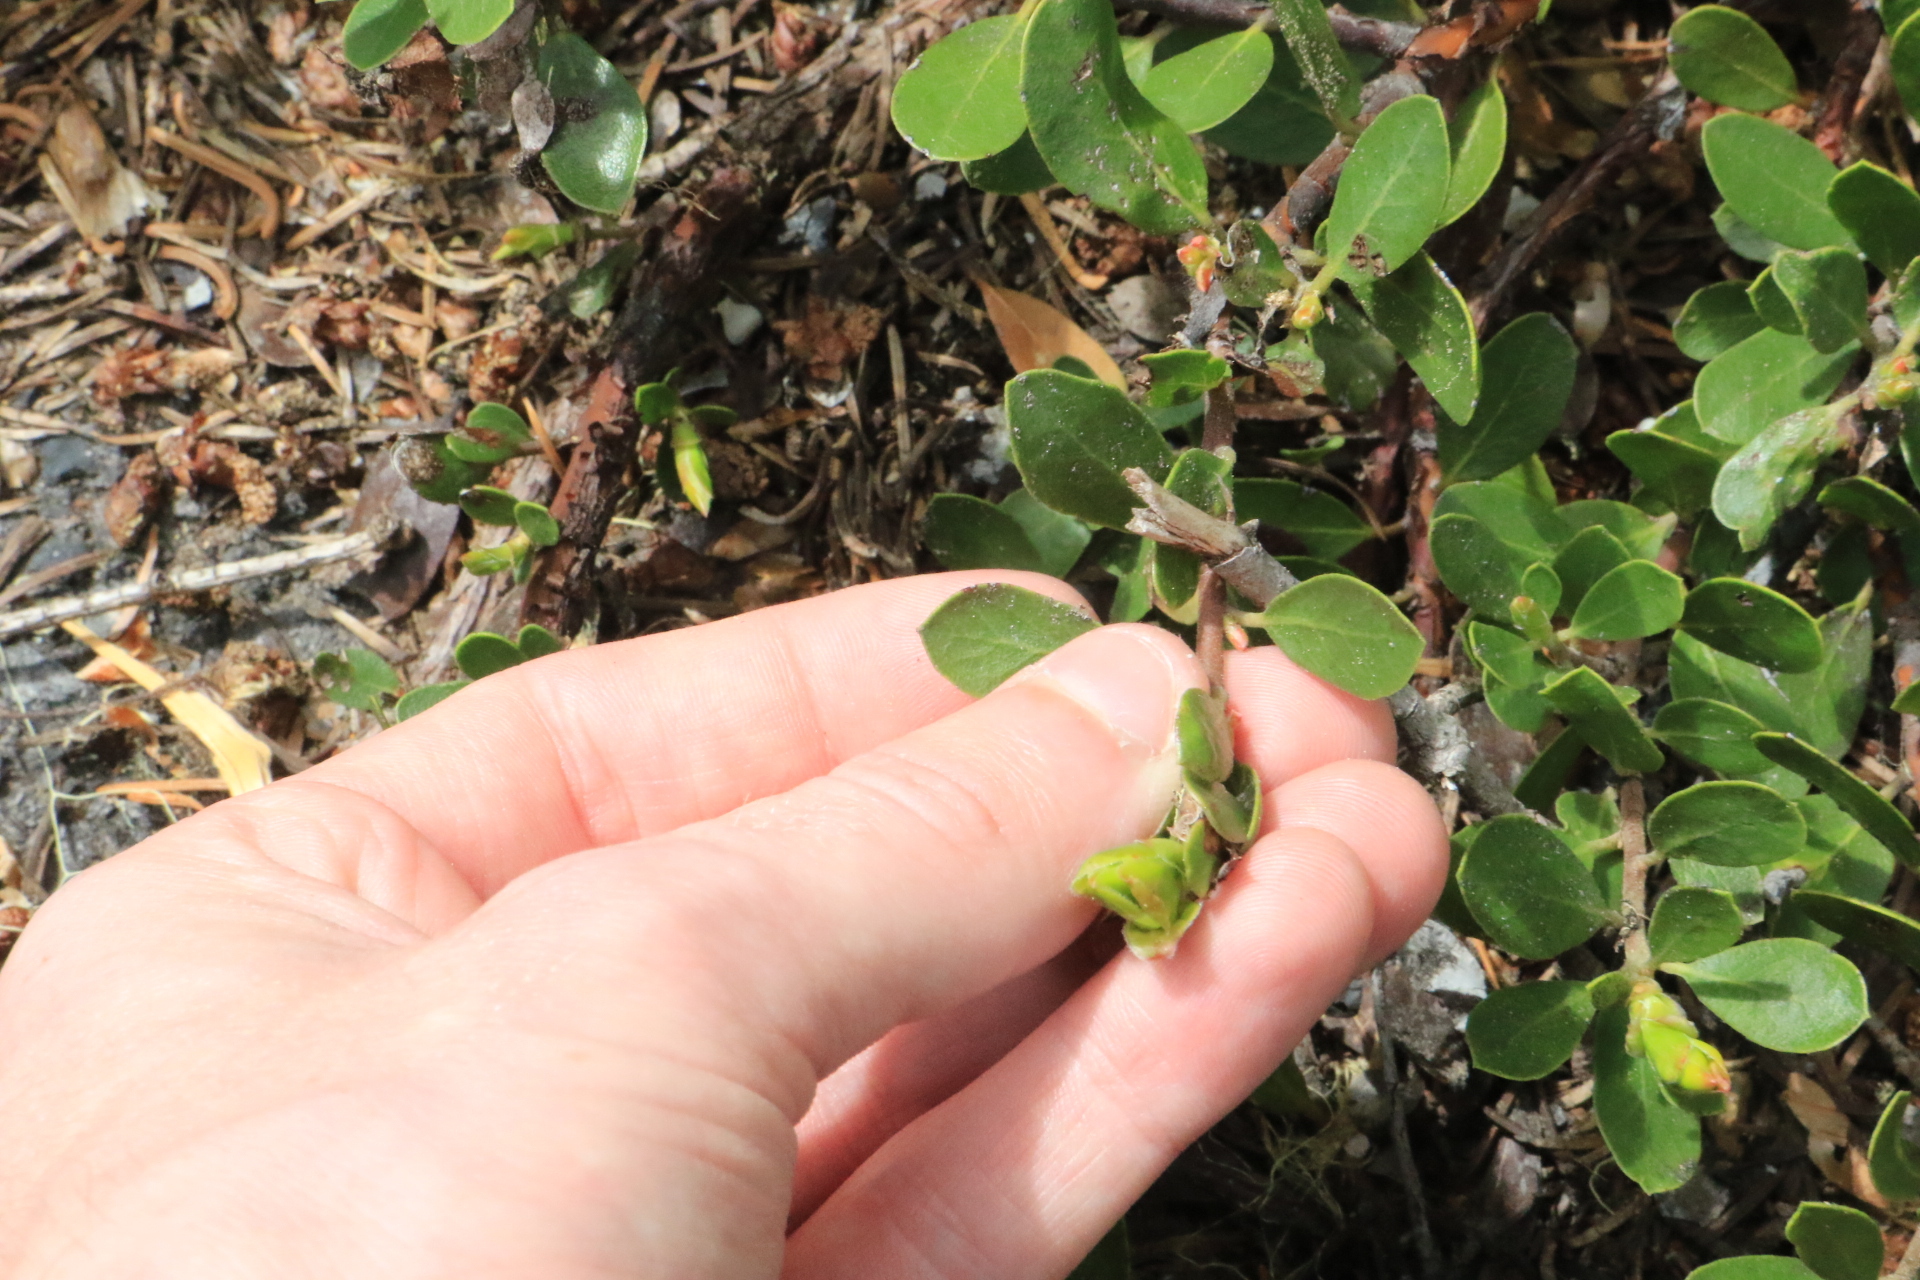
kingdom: Plantae
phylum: Tracheophyta
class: Magnoliopsida
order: Ericales
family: Ericaceae
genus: Arctostaphylos
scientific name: Arctostaphylos nevadensis
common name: Pinemat manzanita
